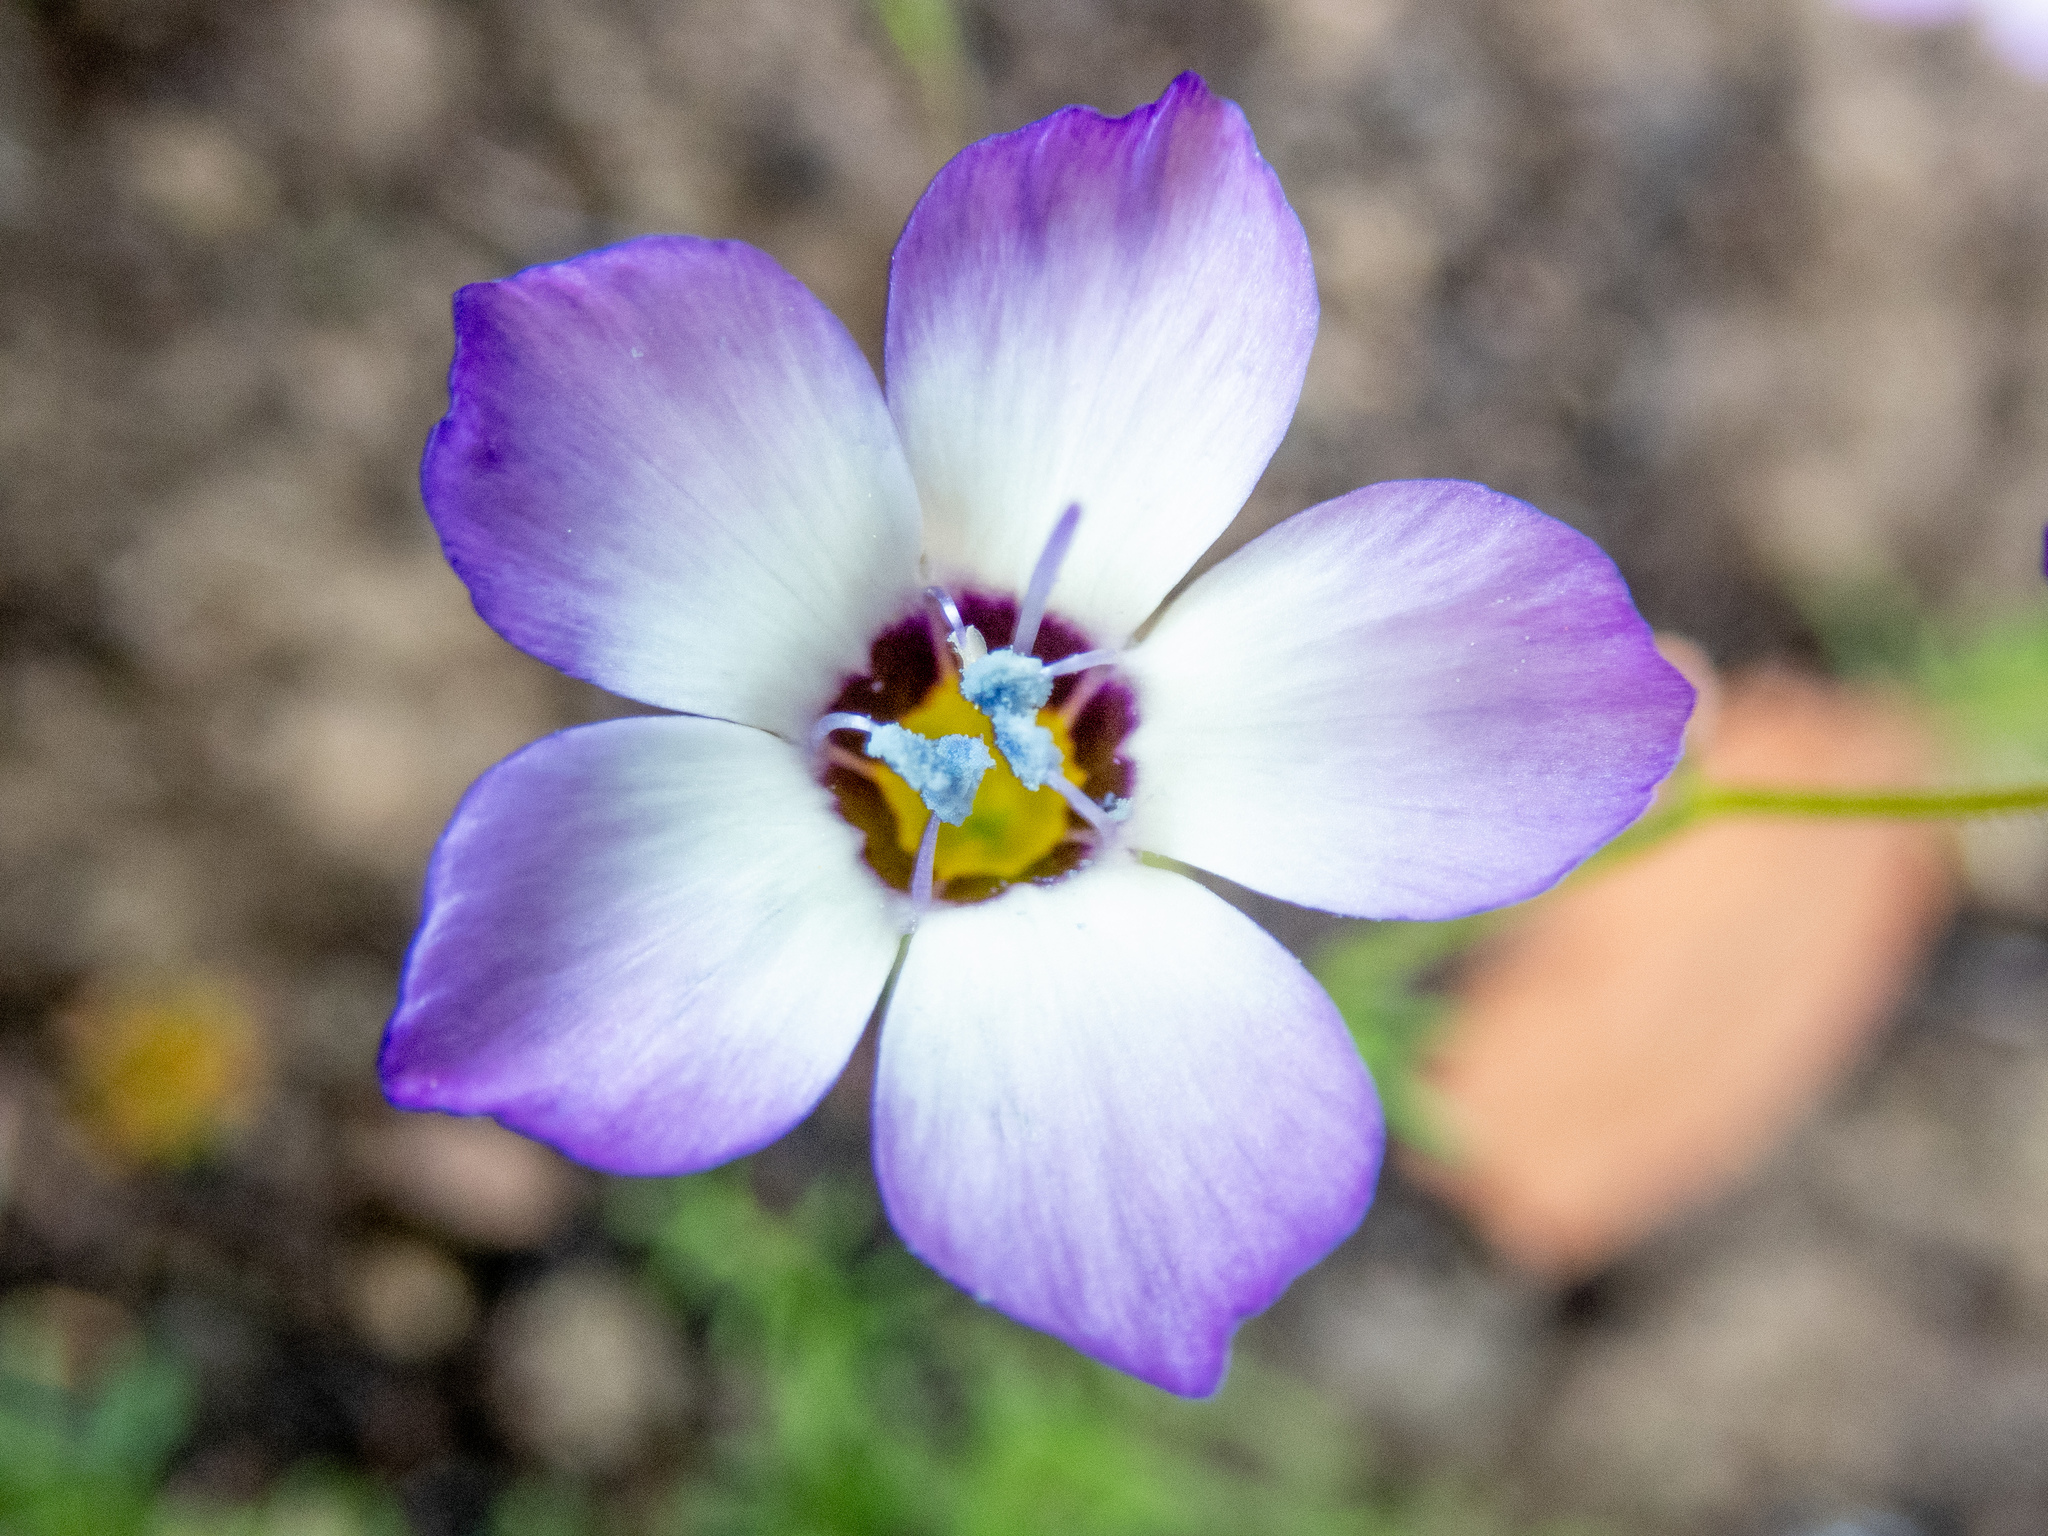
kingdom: Plantae
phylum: Tracheophyta
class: Magnoliopsida
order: Ericales
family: Polemoniaceae
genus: Gilia
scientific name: Gilia tricolor
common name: Bird's-eyes
